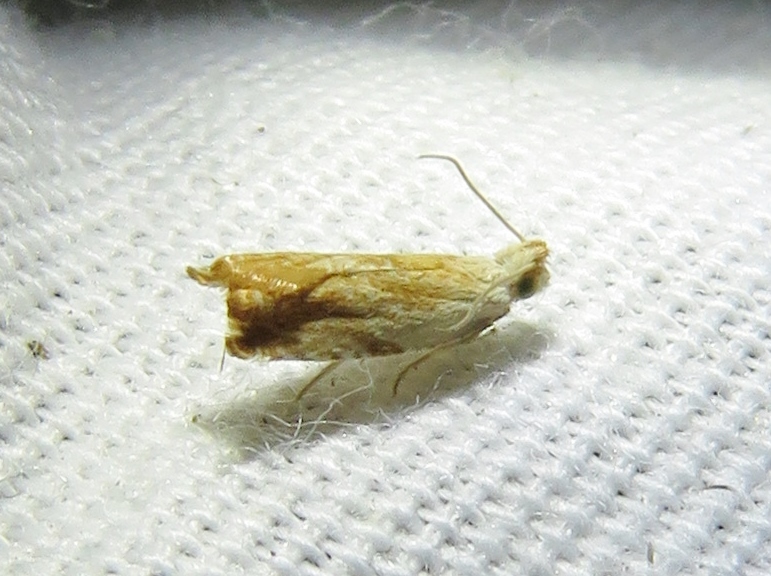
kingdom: Animalia
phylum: Arthropoda
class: Insecta
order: Lepidoptera
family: Tortricidae
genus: Ancylis
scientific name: Ancylis platanana
